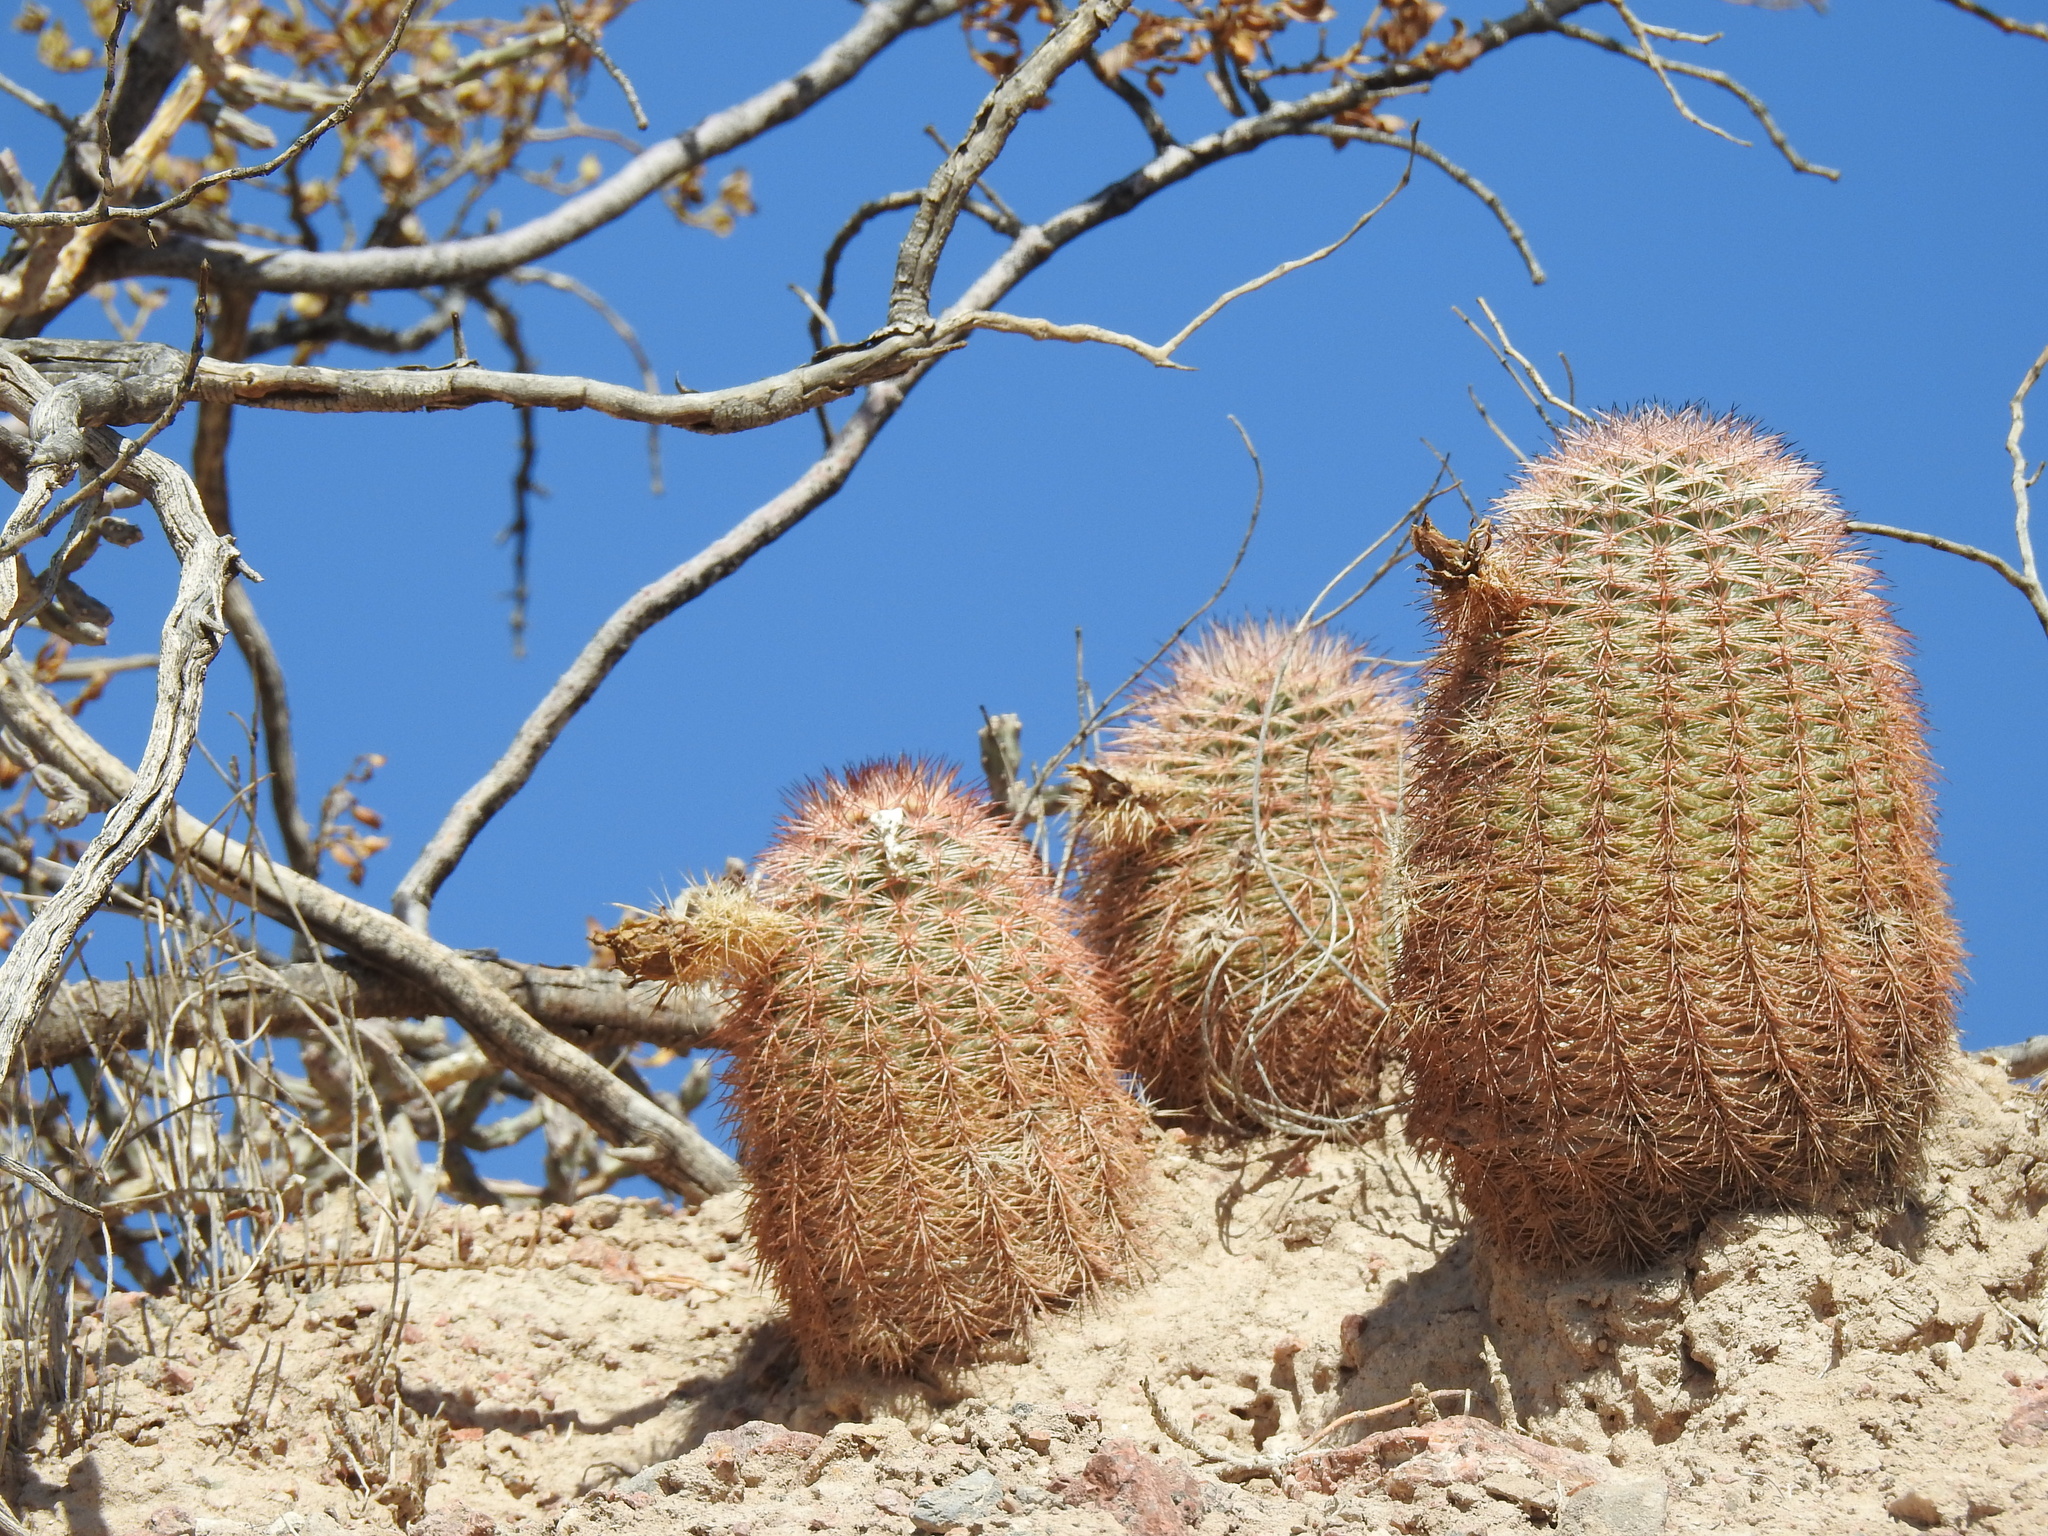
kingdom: Plantae
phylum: Tracheophyta
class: Magnoliopsida
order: Caryophyllales
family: Cactaceae
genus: Echinocereus
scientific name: Echinocereus dasyacanthus
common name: Spiny hedgehog cactus
